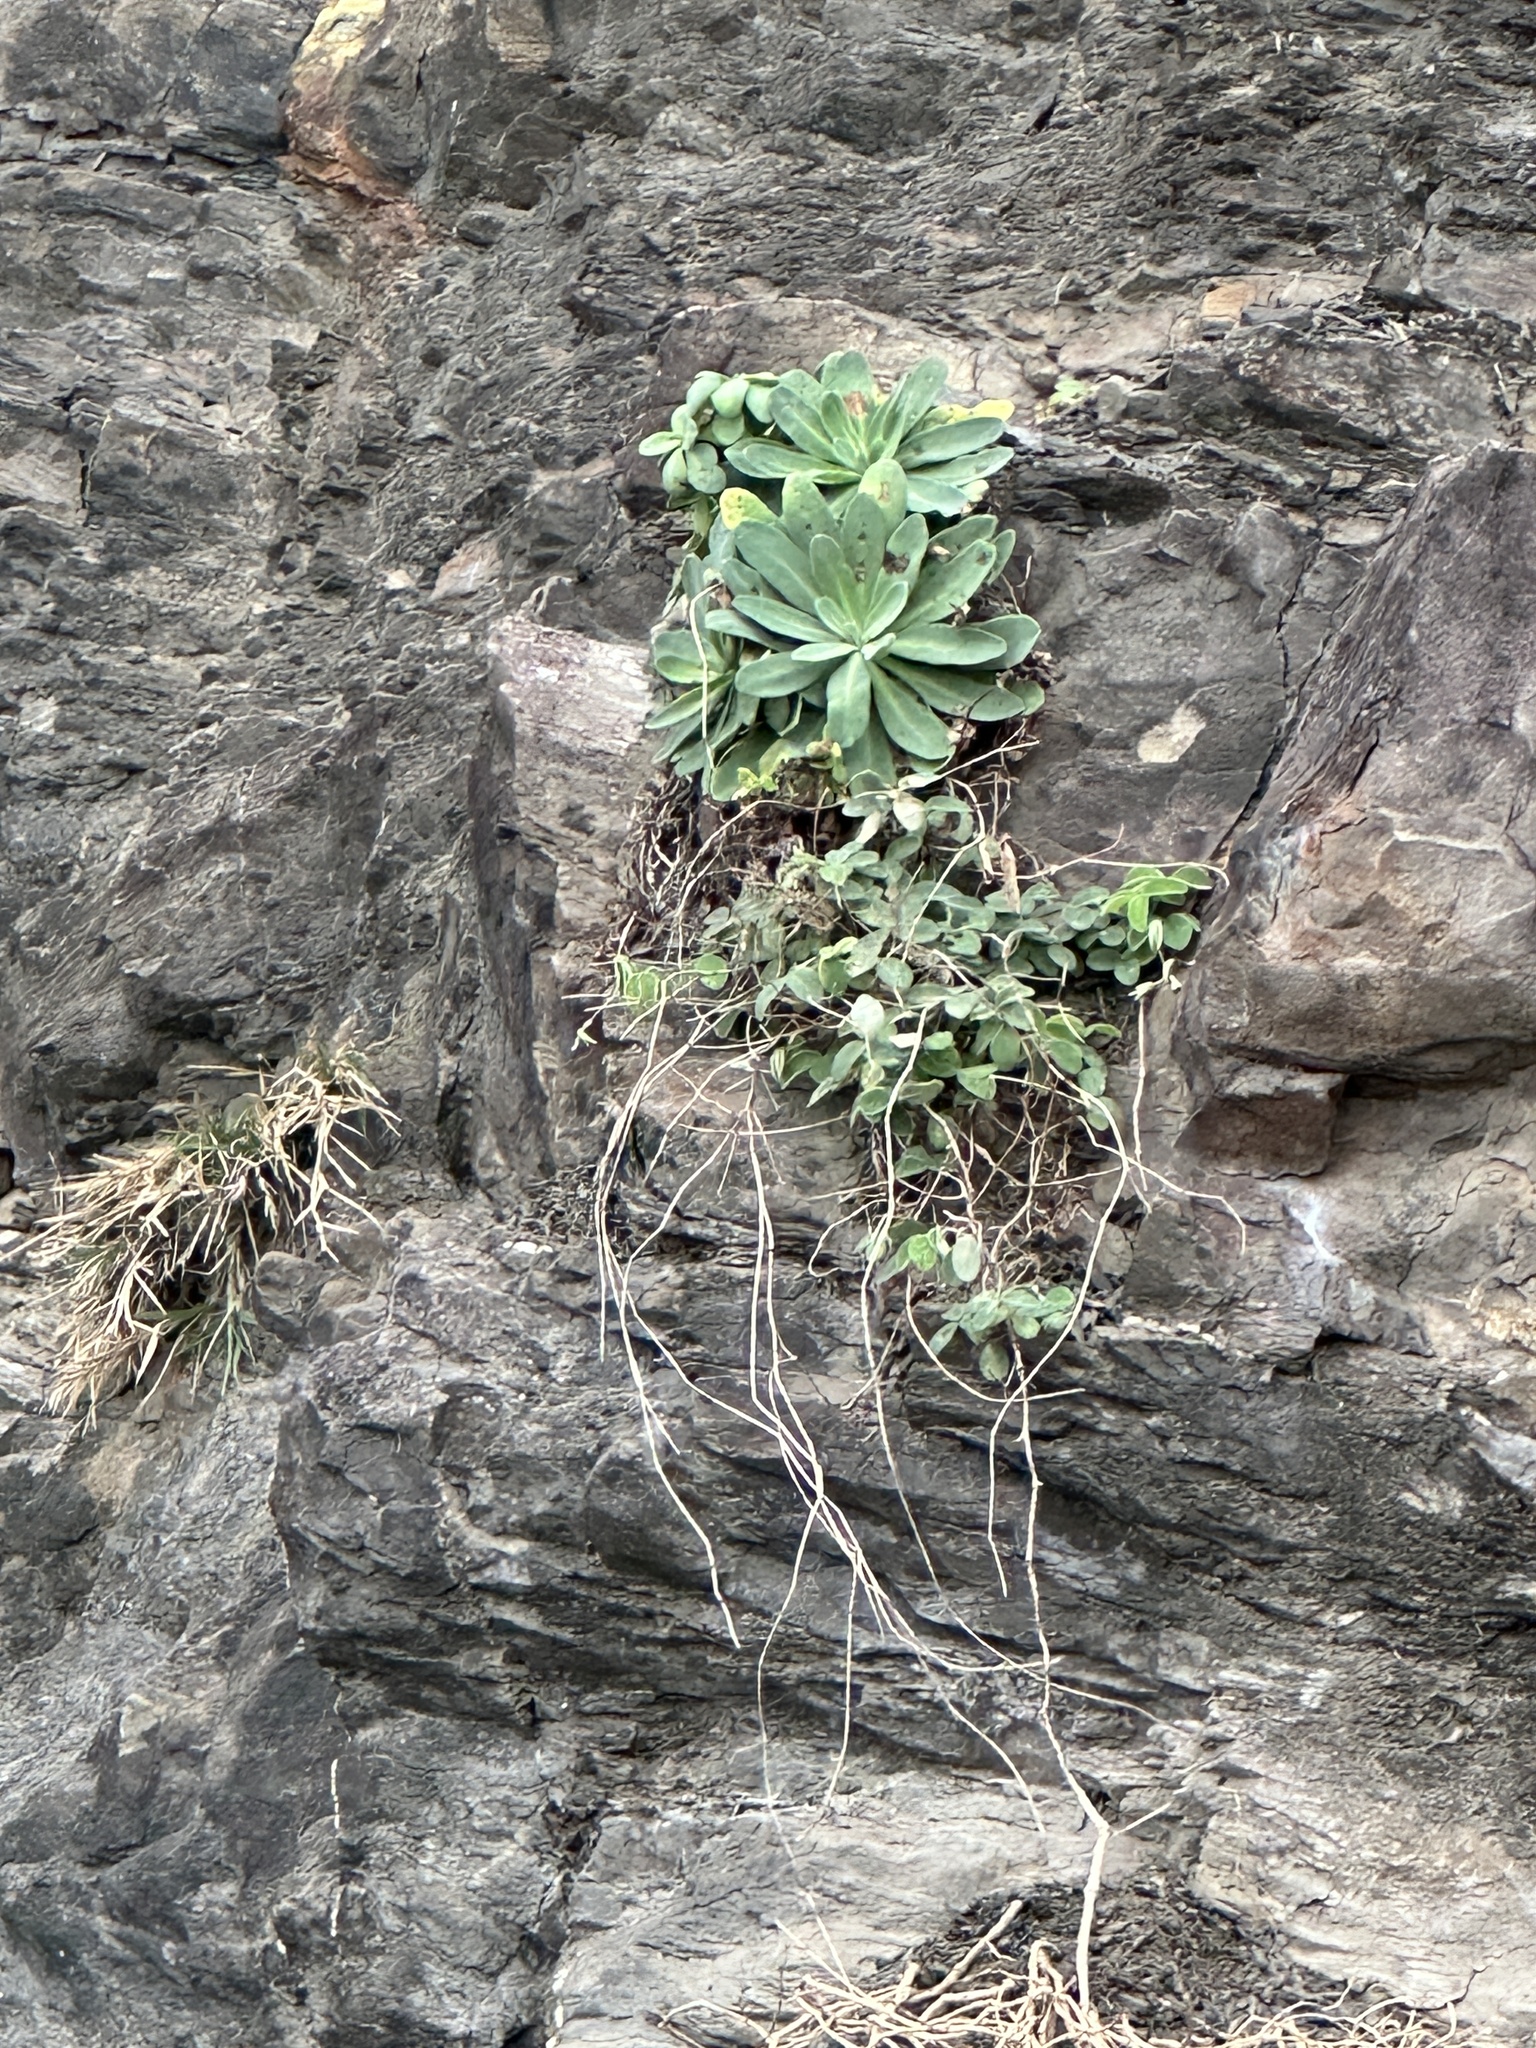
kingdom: Plantae
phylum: Tracheophyta
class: Magnoliopsida
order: Asterales
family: Asteraceae
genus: Crepidiastrum
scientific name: Crepidiastrum taiwanianum
